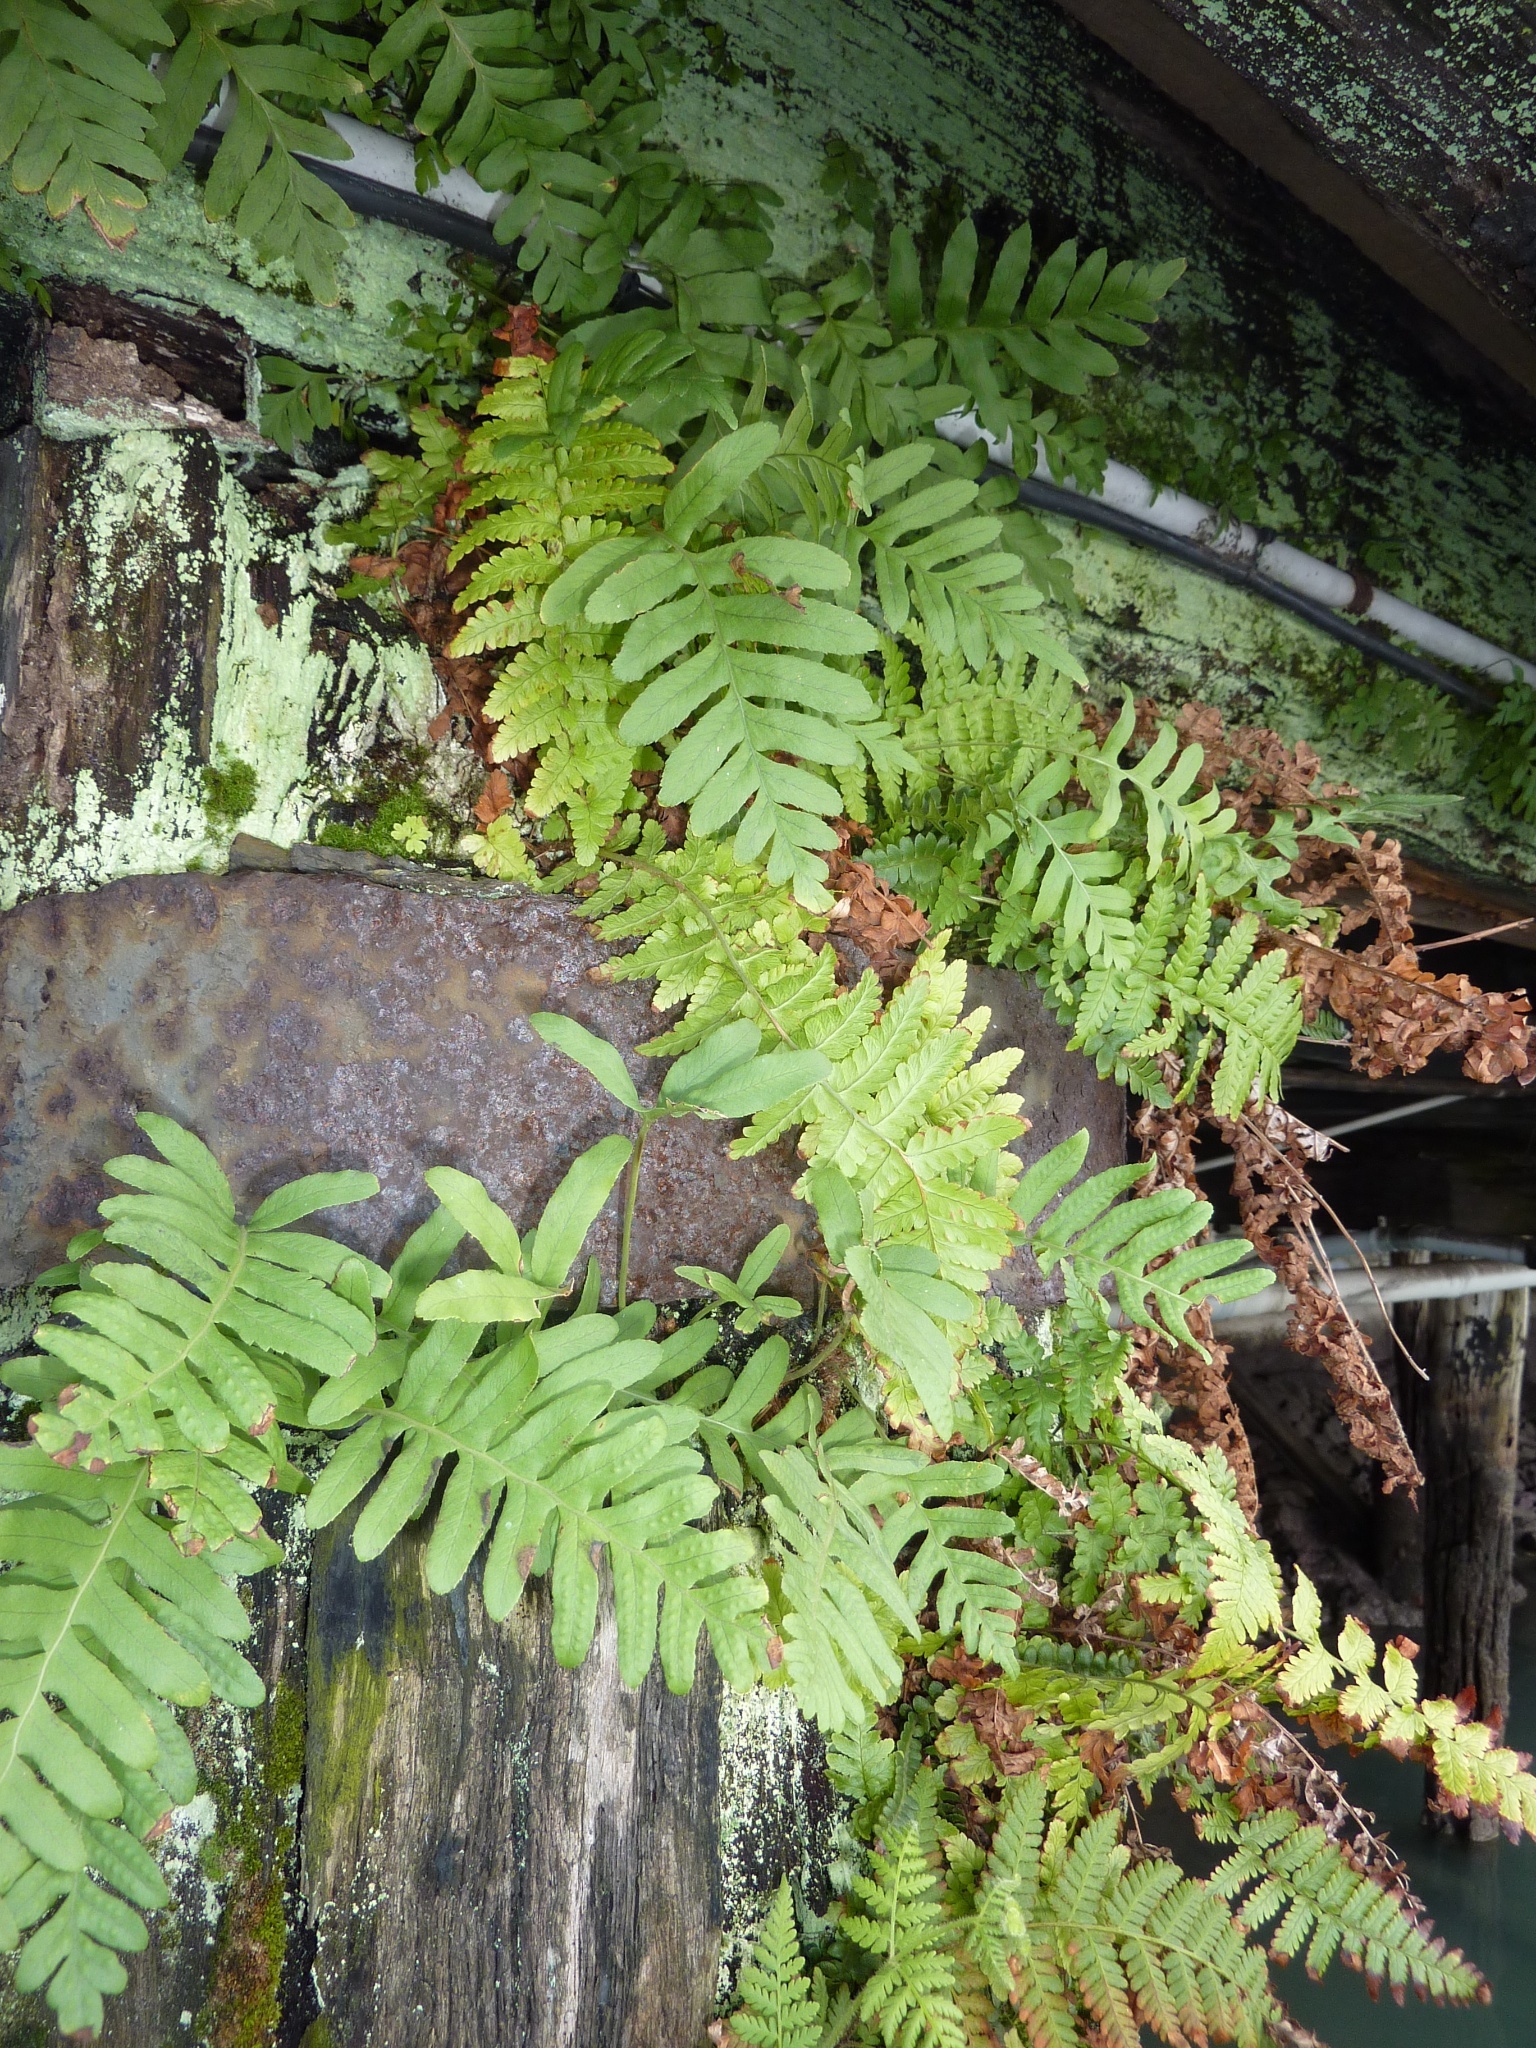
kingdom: Plantae
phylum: Tracheophyta
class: Polypodiopsida
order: Polypodiales
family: Dryopteridaceae
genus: Dryopteris
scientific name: Dryopteris filix-mas
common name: Male fern
